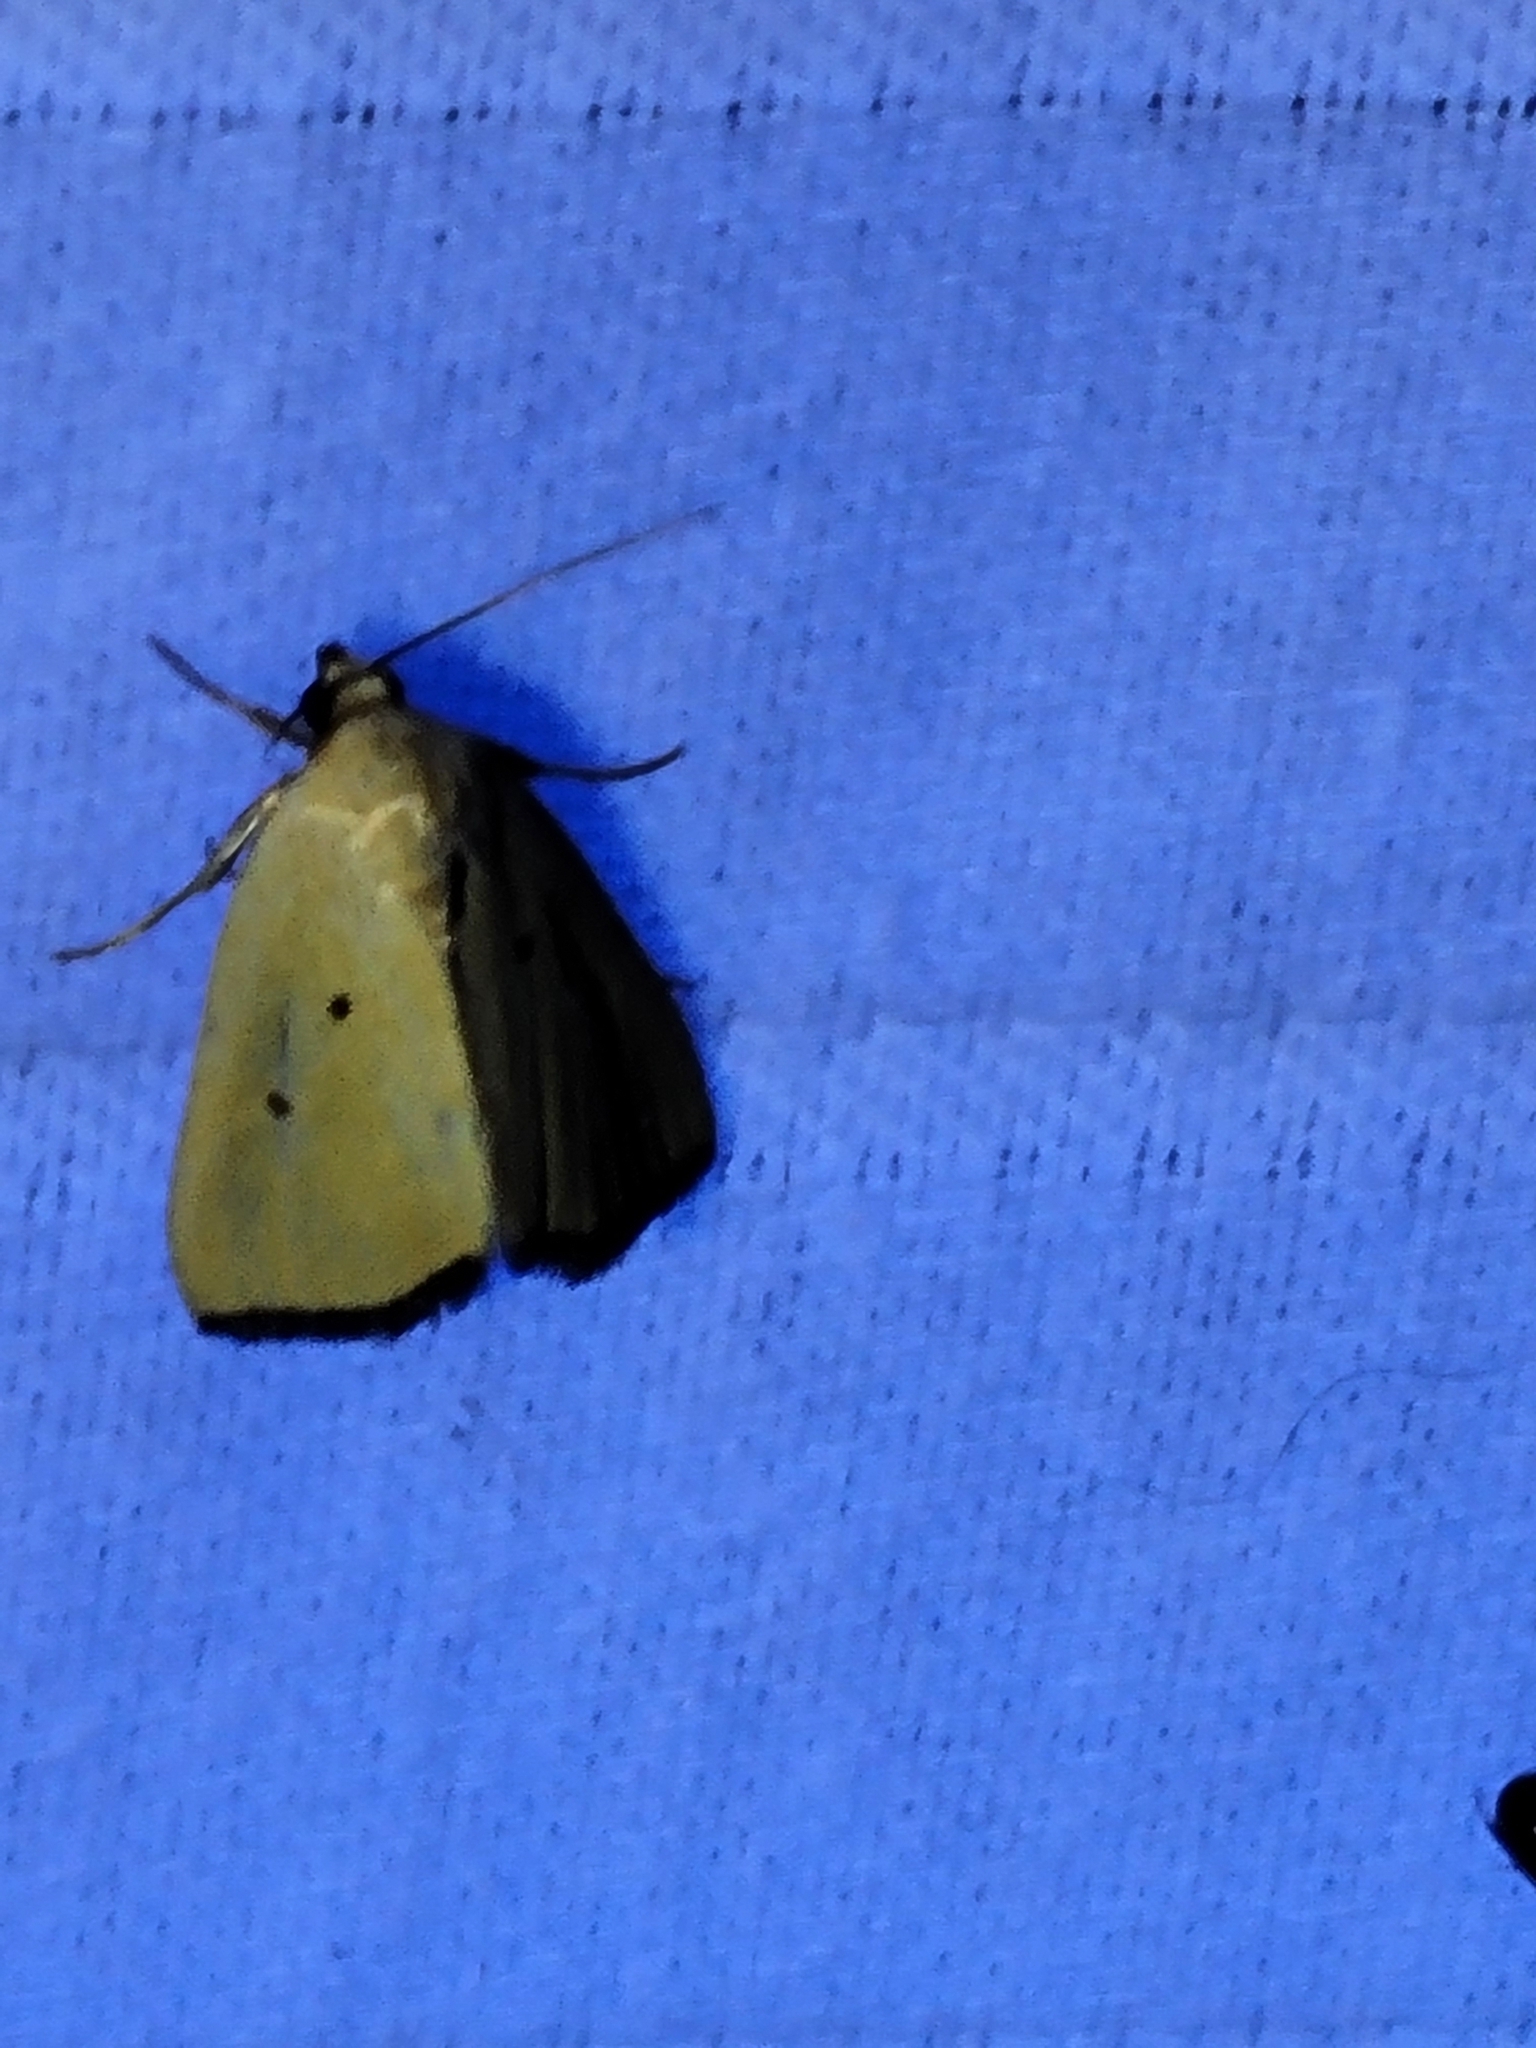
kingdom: Animalia
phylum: Arthropoda
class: Insecta
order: Lepidoptera
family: Noctuidae
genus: Marimatha
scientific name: Marimatha nigrofimbria
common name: Black-bordered lemon moth
